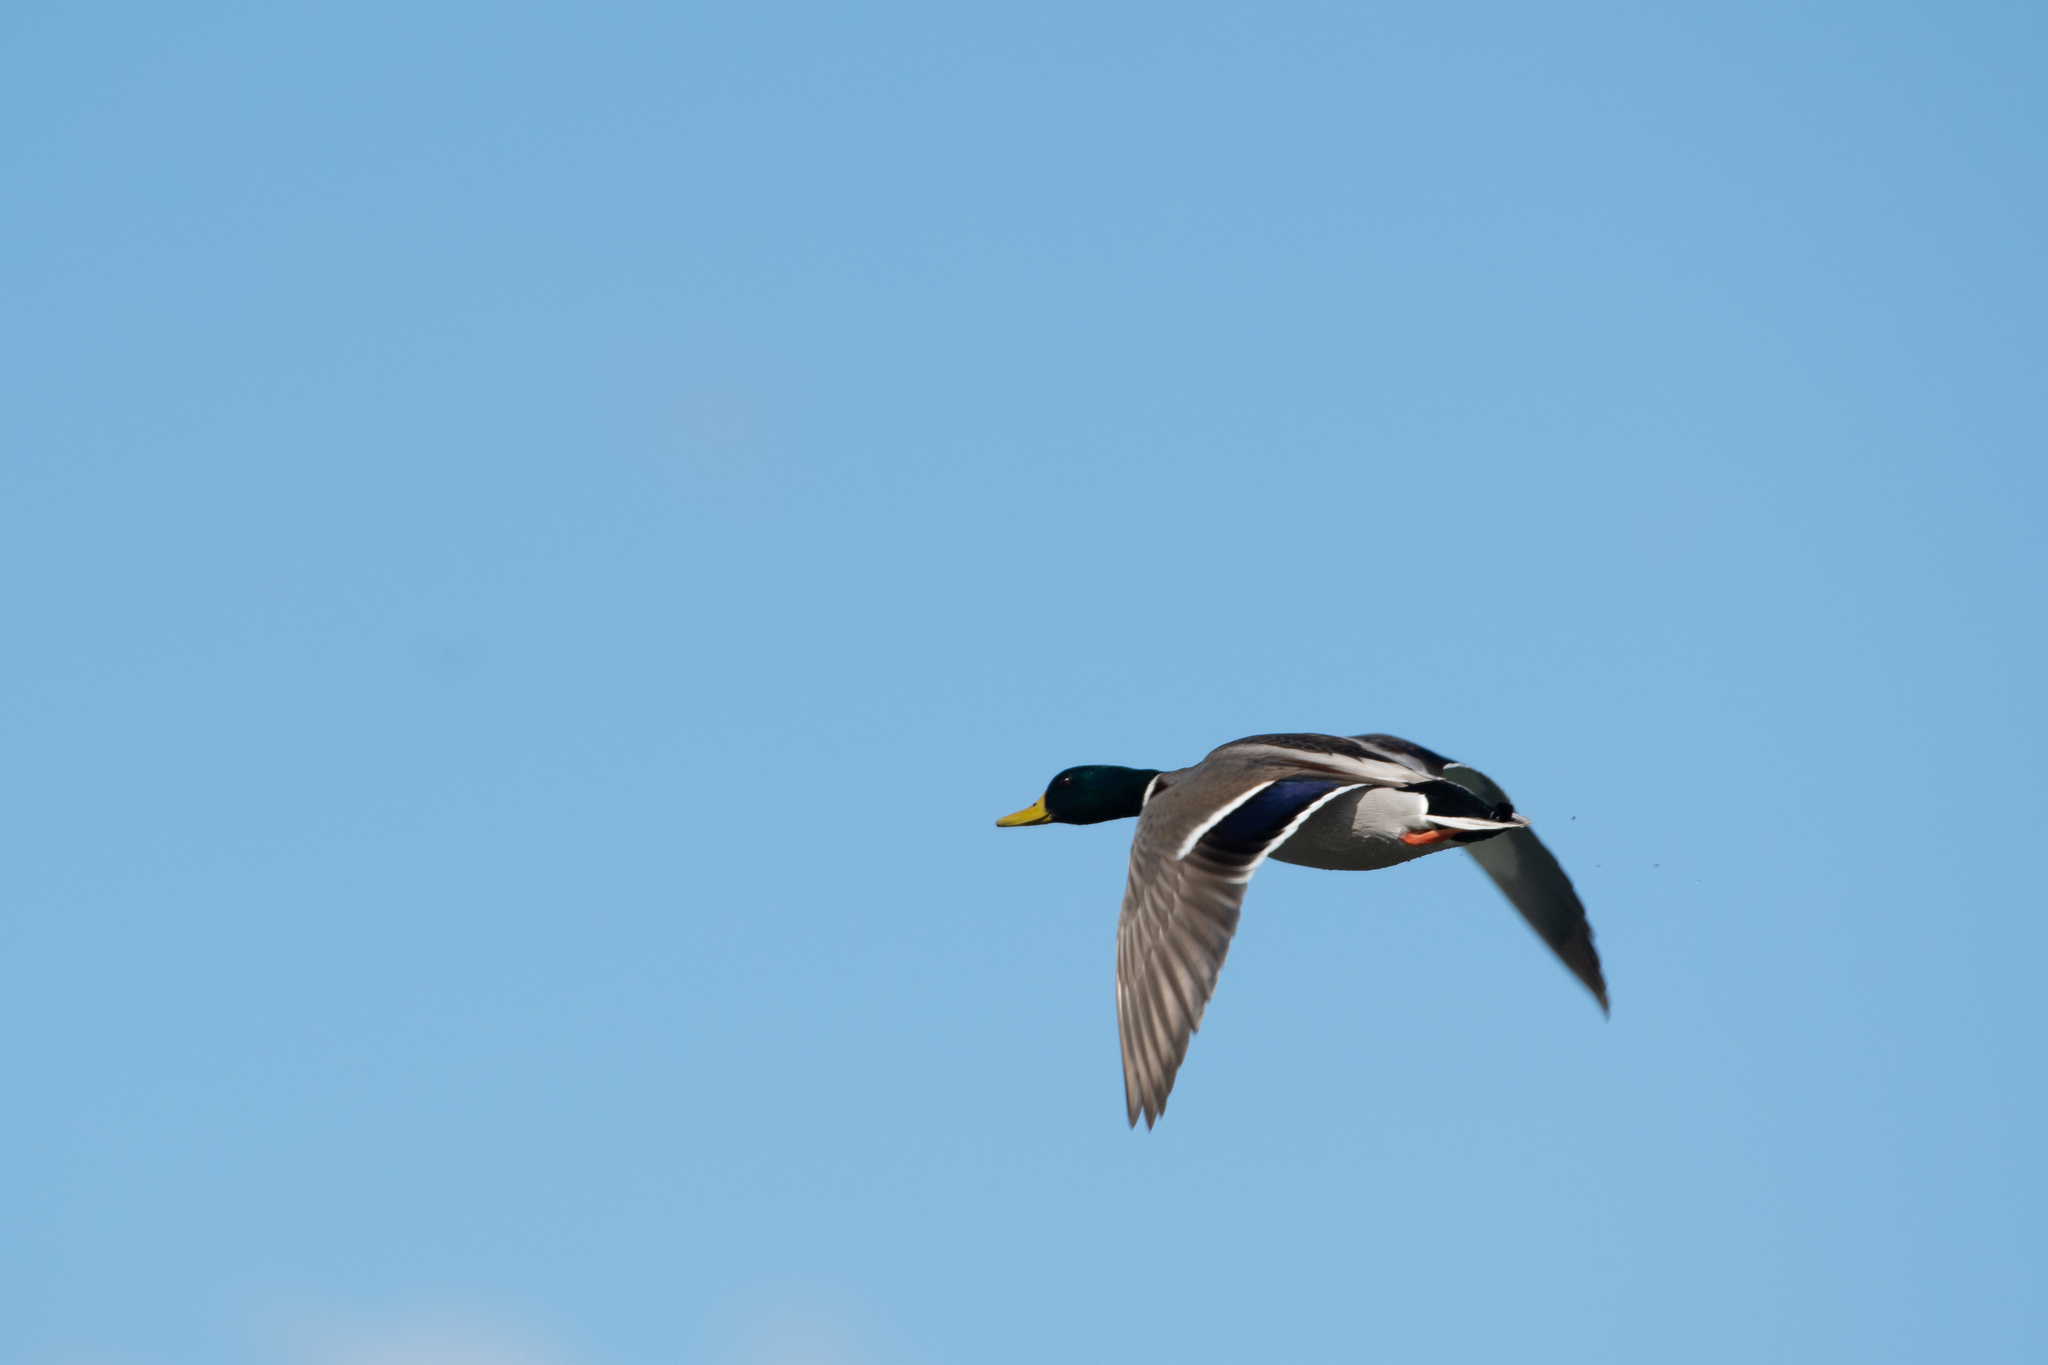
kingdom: Animalia
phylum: Chordata
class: Aves
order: Anseriformes
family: Anatidae
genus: Anas
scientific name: Anas platyrhynchos
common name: Mallard
